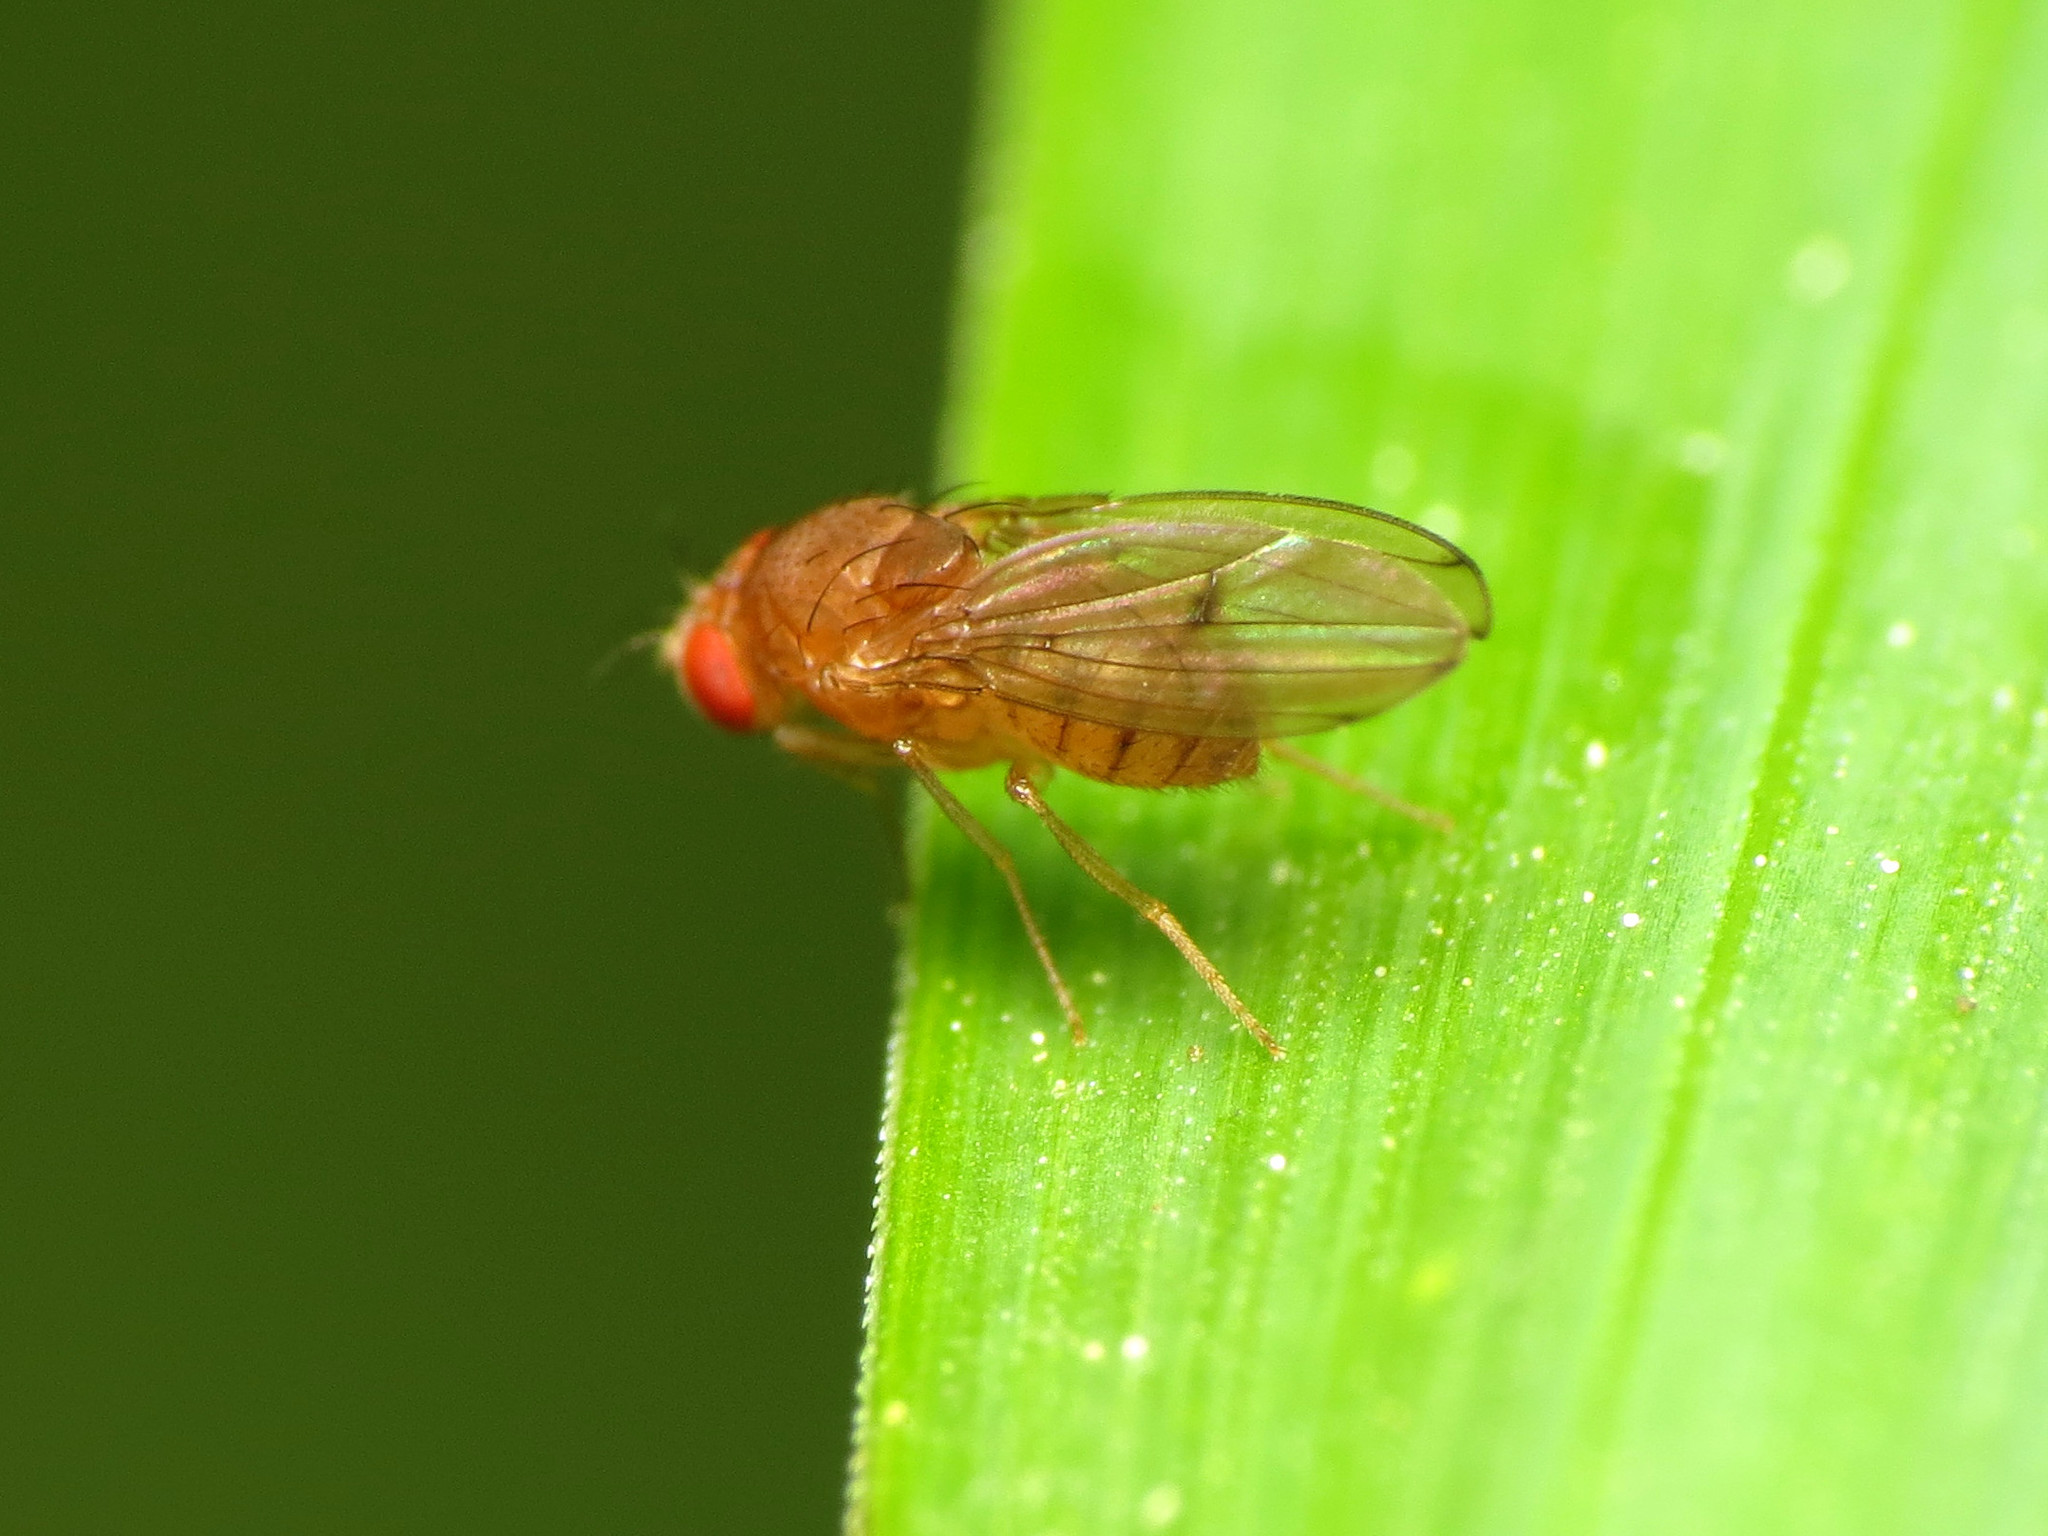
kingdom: Animalia
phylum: Arthropoda
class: Insecta
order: Diptera
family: Drosophilidae
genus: Drosophila
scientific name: Drosophila tripunctata
